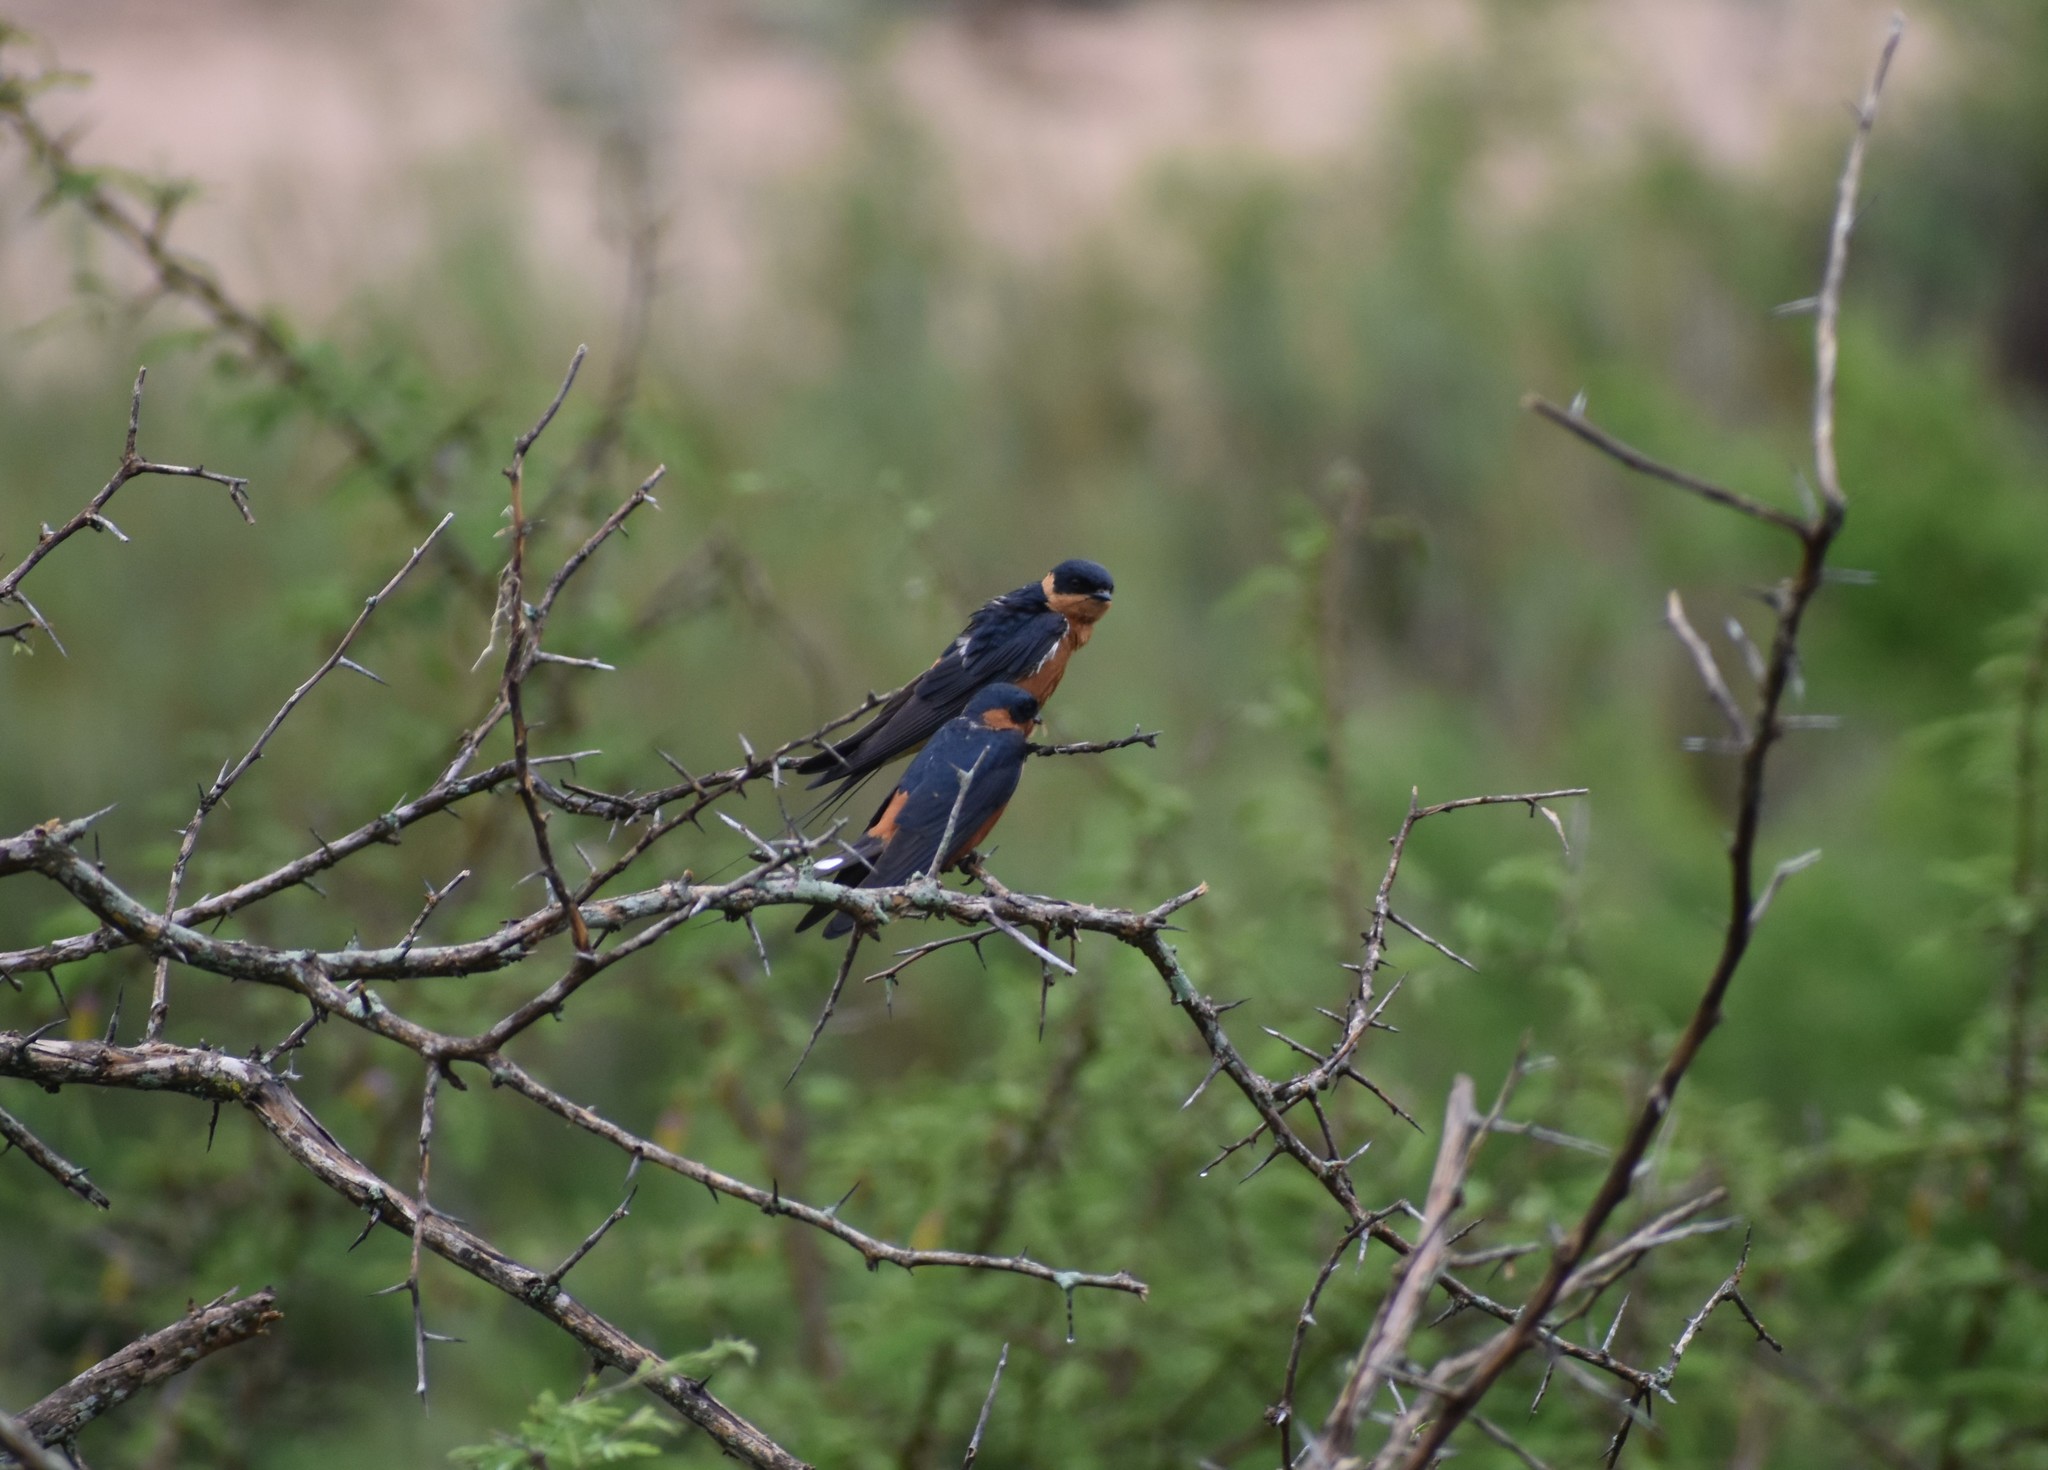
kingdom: Animalia
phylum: Chordata
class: Aves
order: Passeriformes
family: Hirundinidae
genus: Cecropis
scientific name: Cecropis semirufa
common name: Red-breasted swallow
